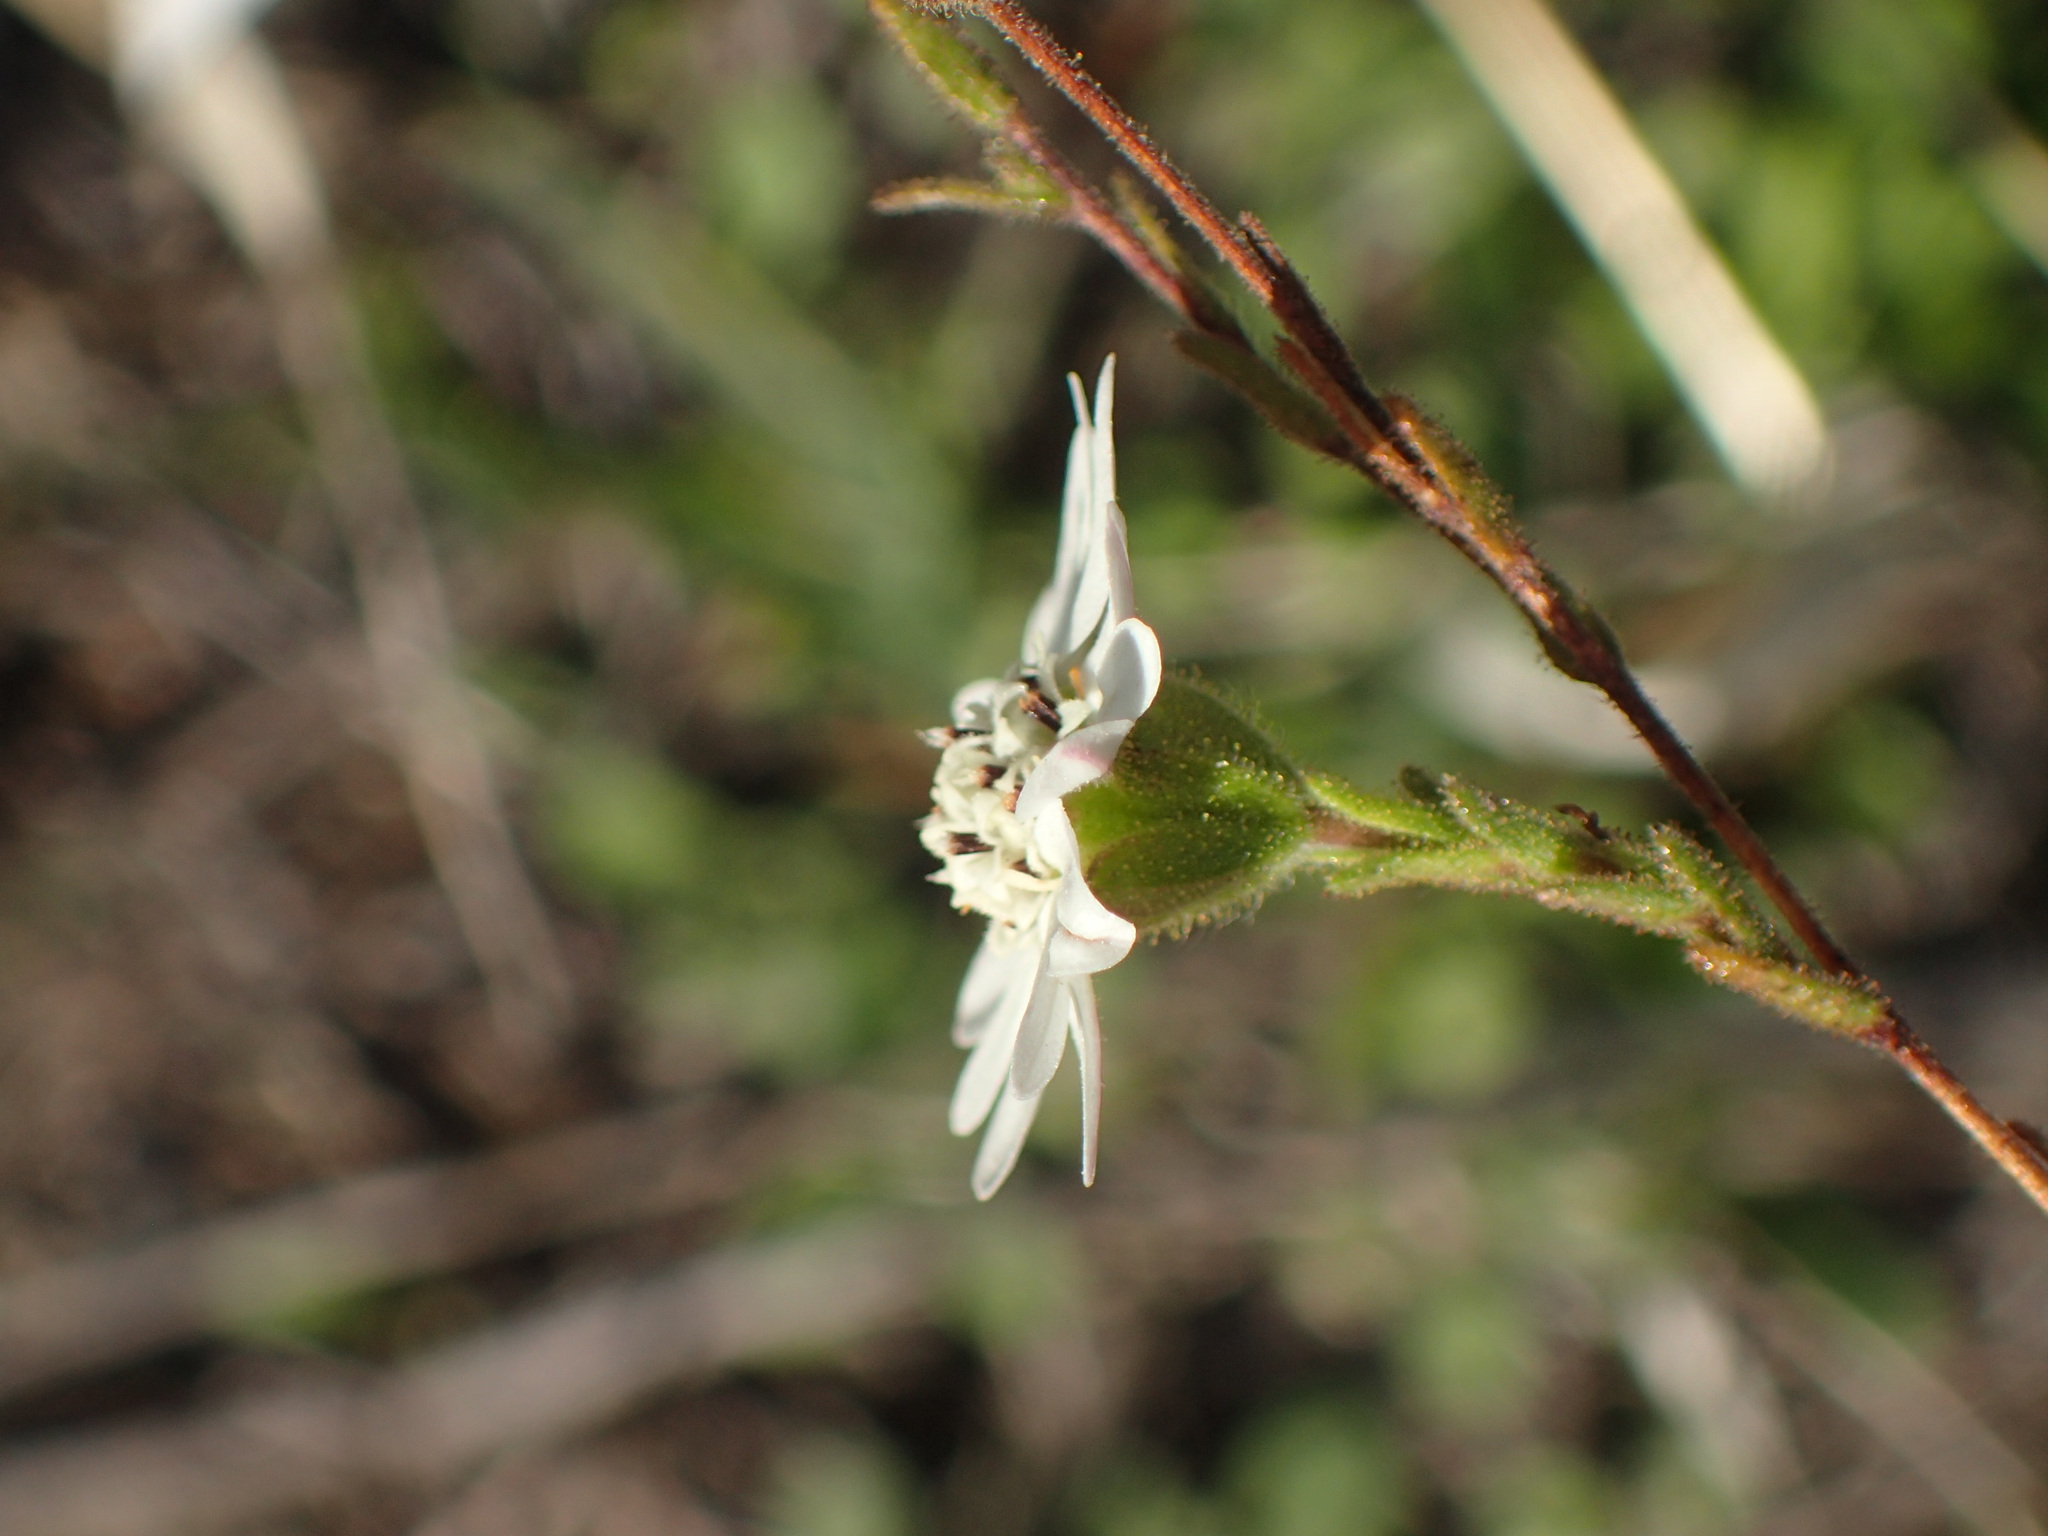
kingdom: Plantae
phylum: Tracheophyta
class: Magnoliopsida
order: Asterales
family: Asteraceae
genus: Hemizonia
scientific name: Hemizonia congesta
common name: Hayfield tarweed
